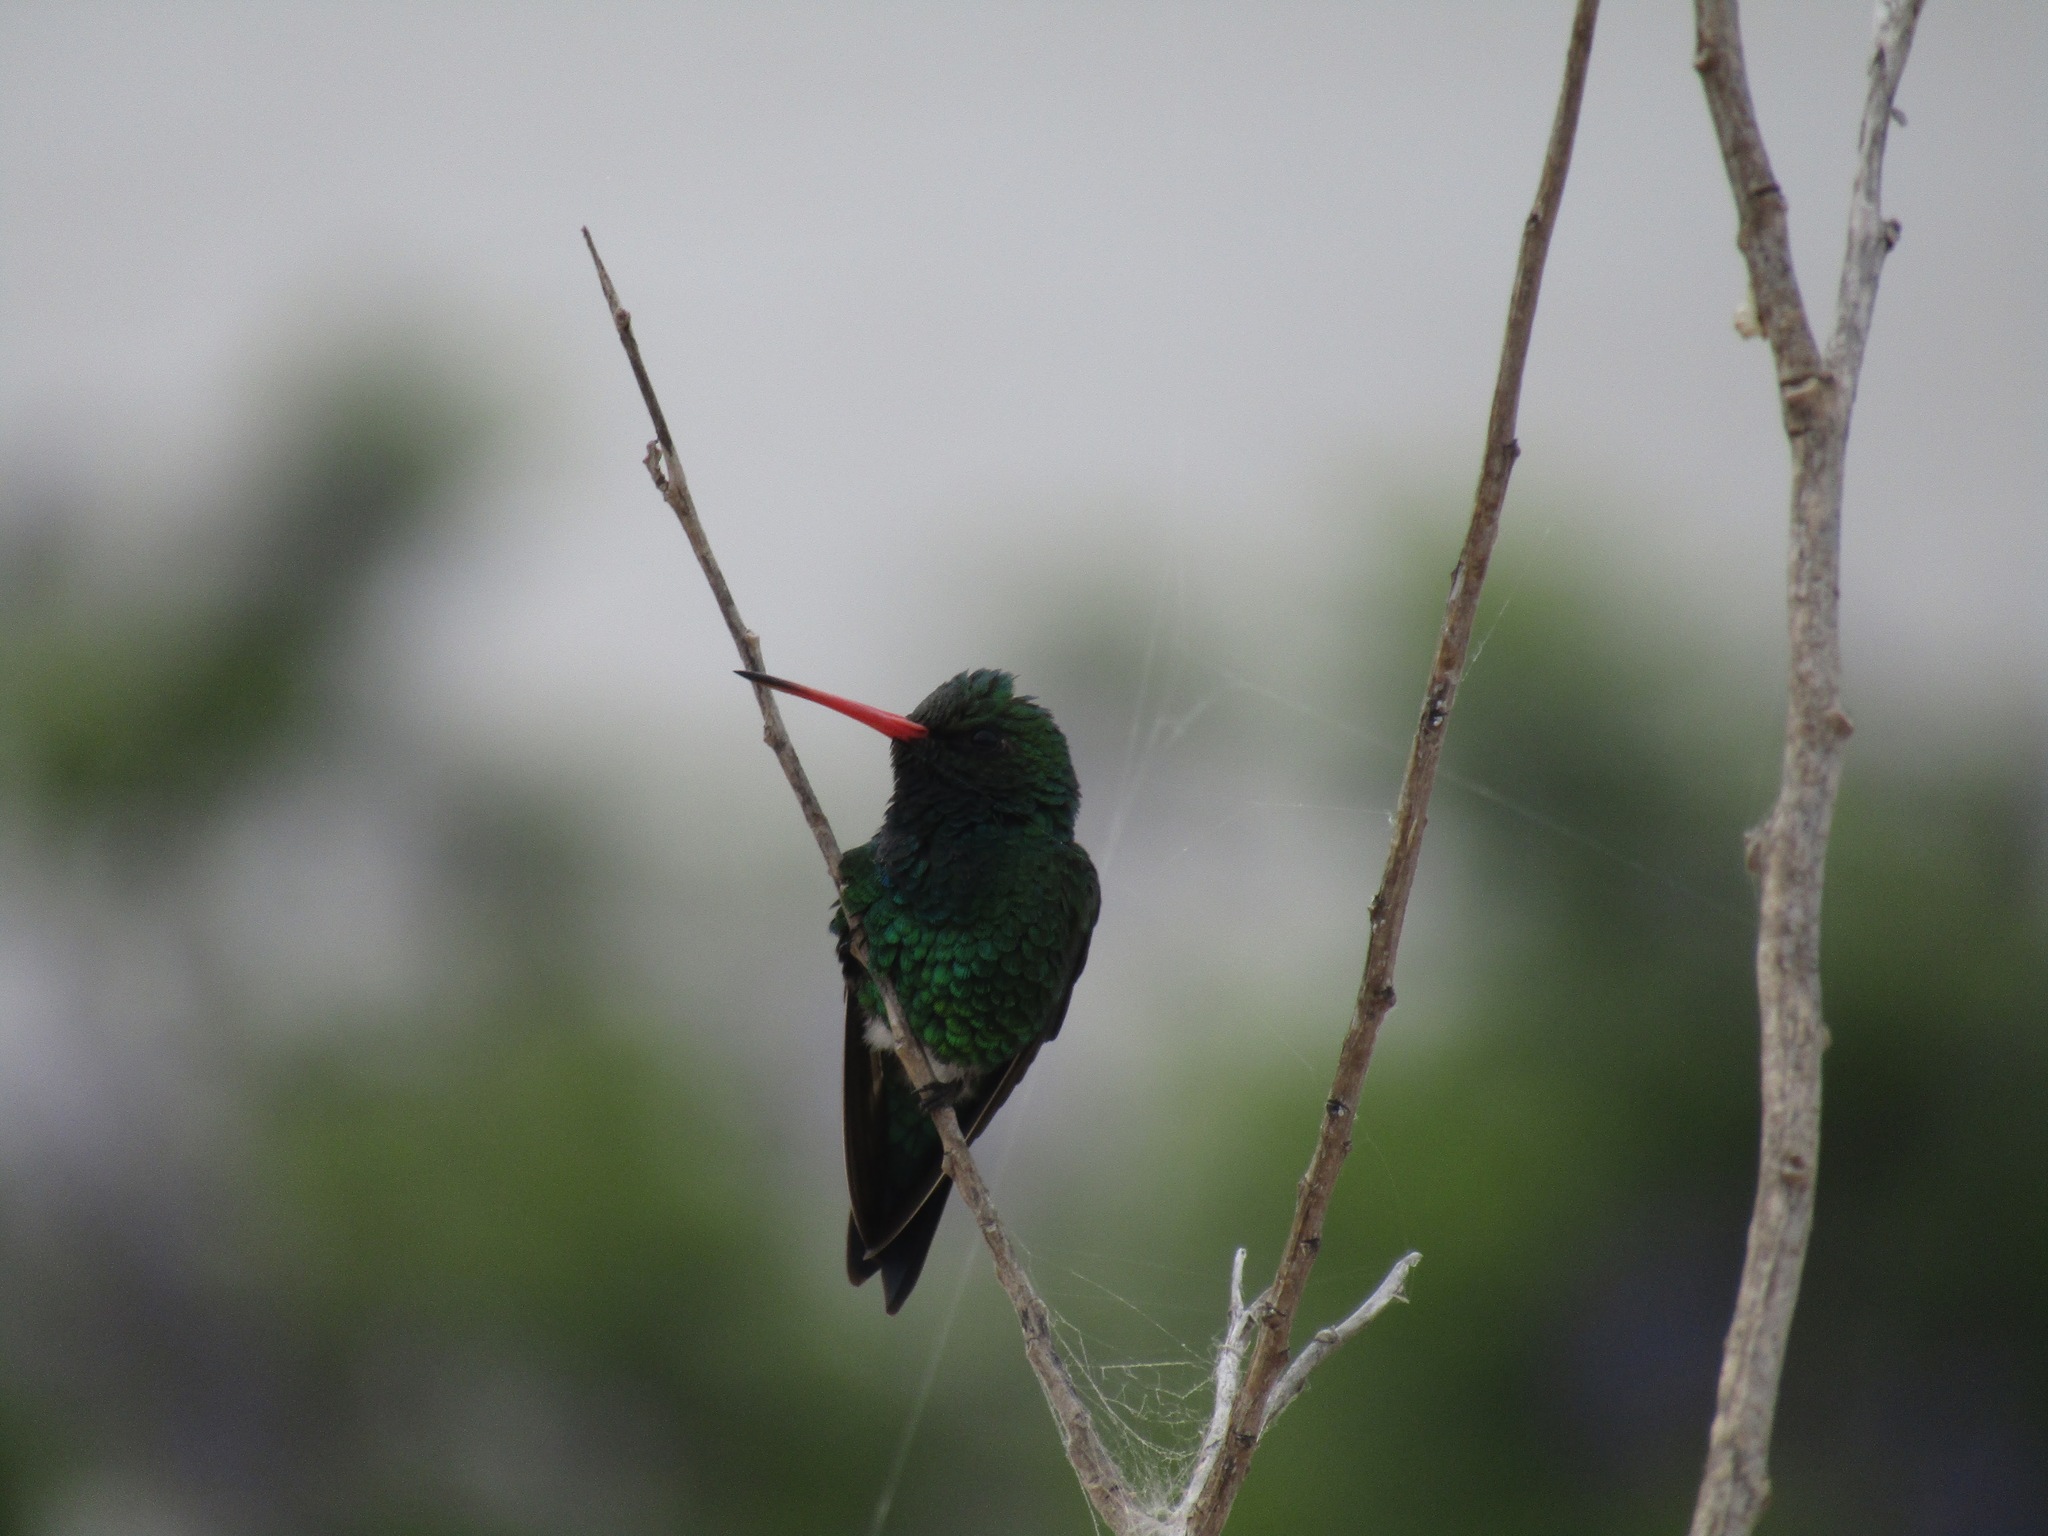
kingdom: Animalia
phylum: Chordata
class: Aves
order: Apodiformes
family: Trochilidae
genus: Chlorostilbon
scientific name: Chlorostilbon lucidus
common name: Glittering-bellied emerald
